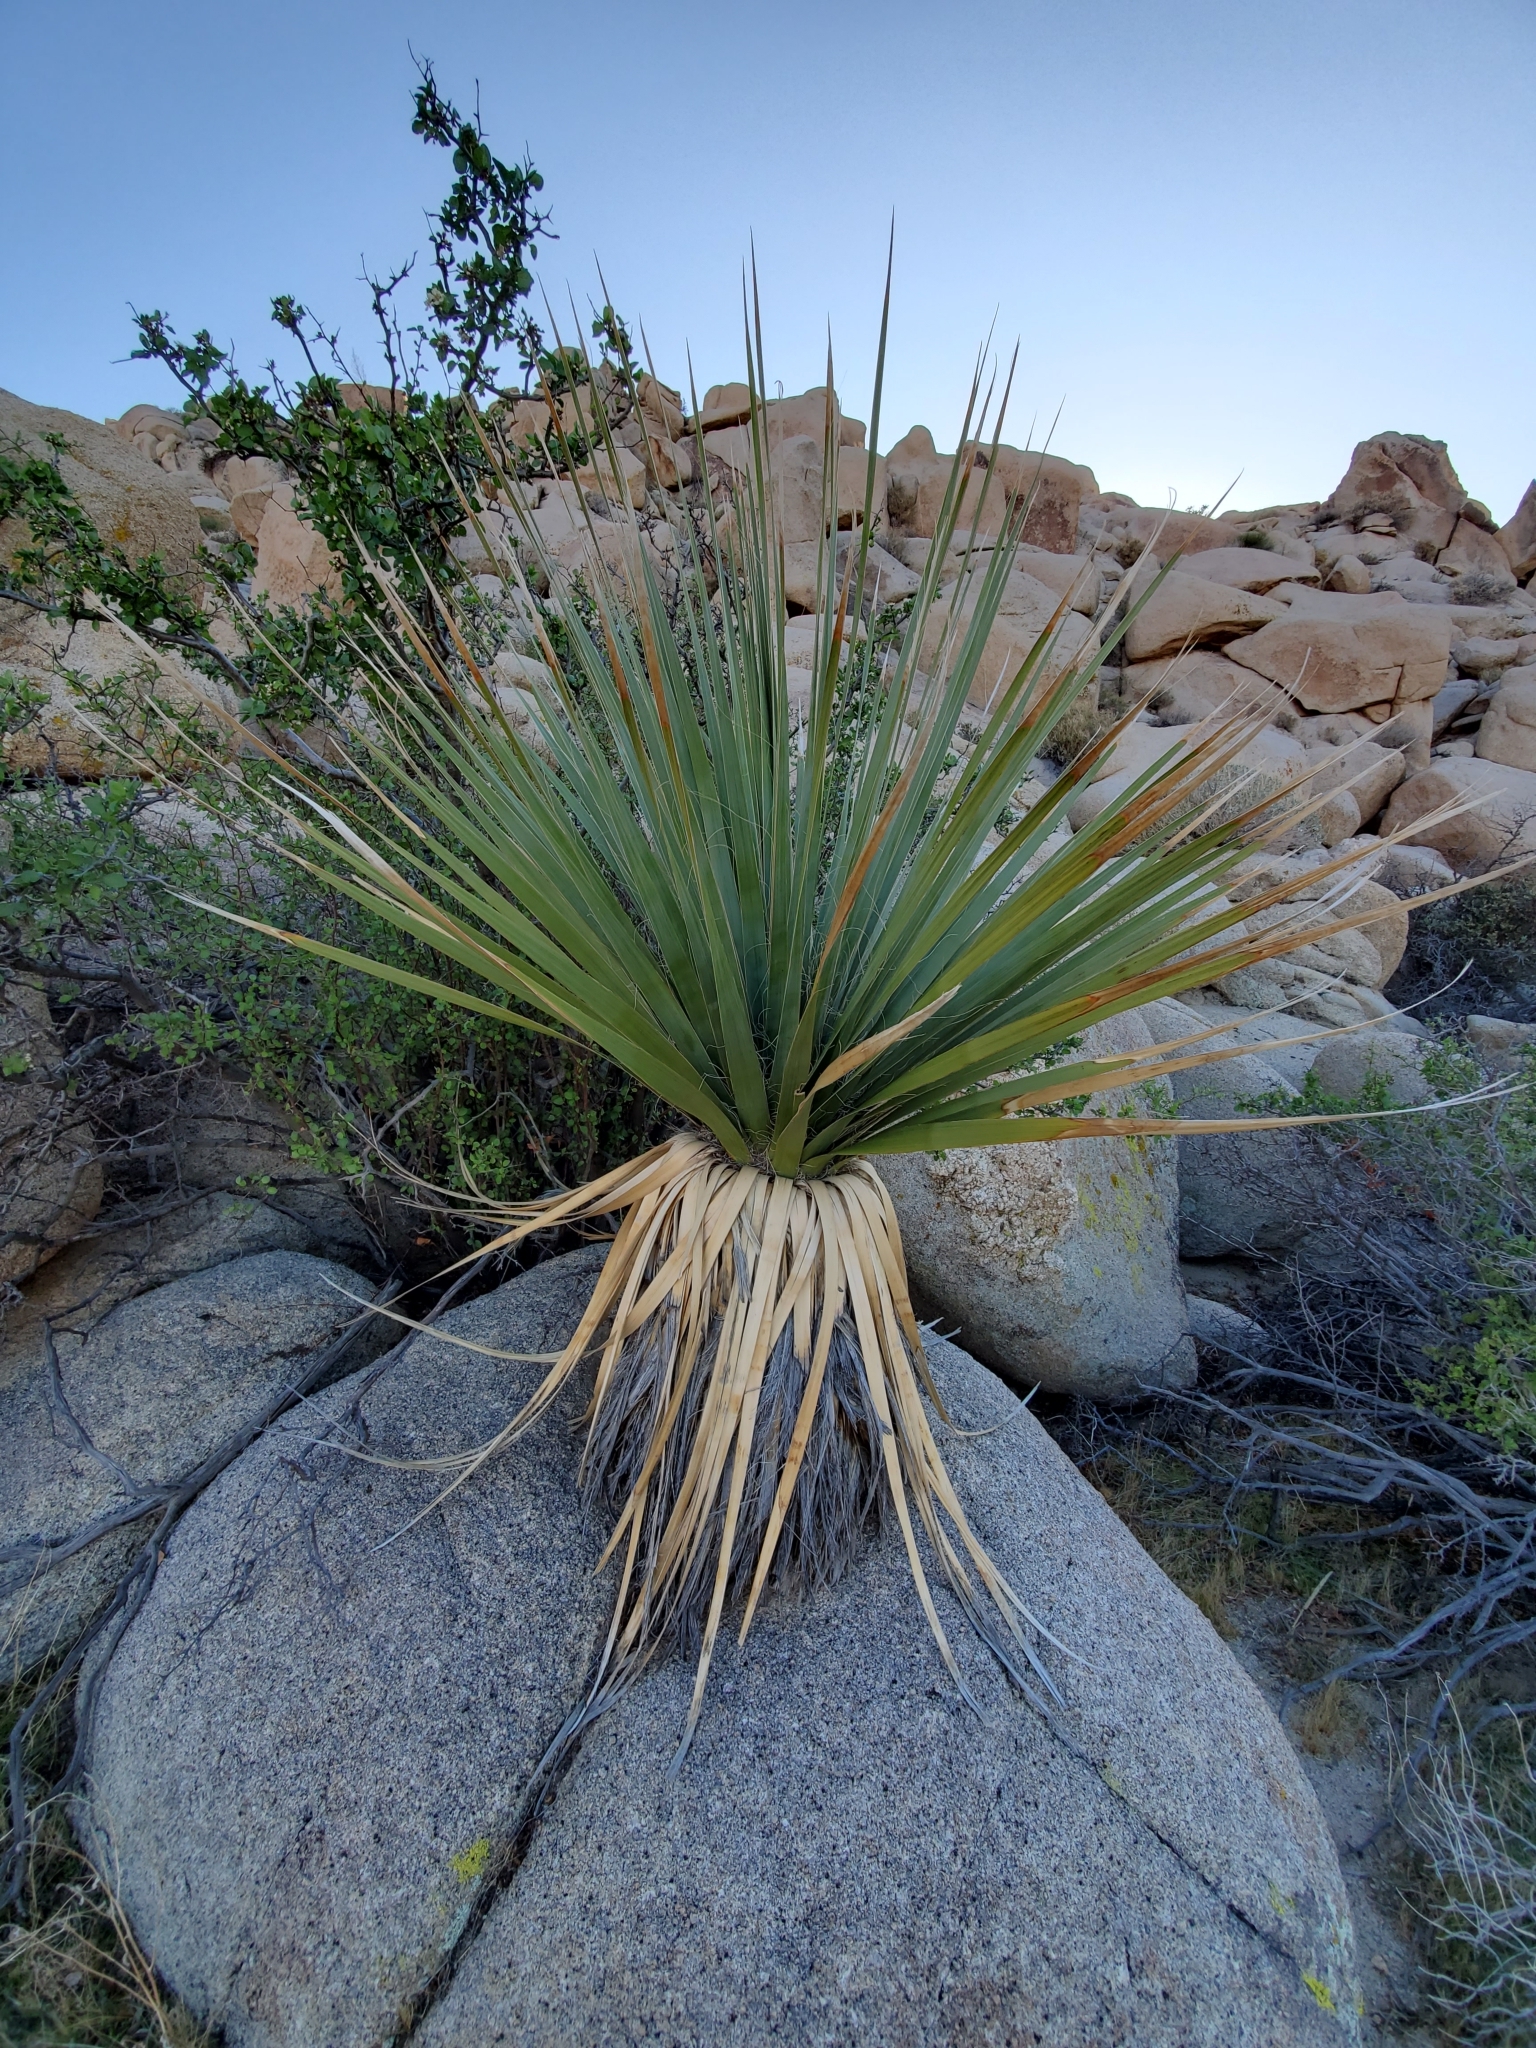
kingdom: Plantae
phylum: Tracheophyta
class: Liliopsida
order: Asparagales
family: Asparagaceae
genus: Nolina
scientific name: Nolina bigelovii
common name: Bigelow bear-grass
